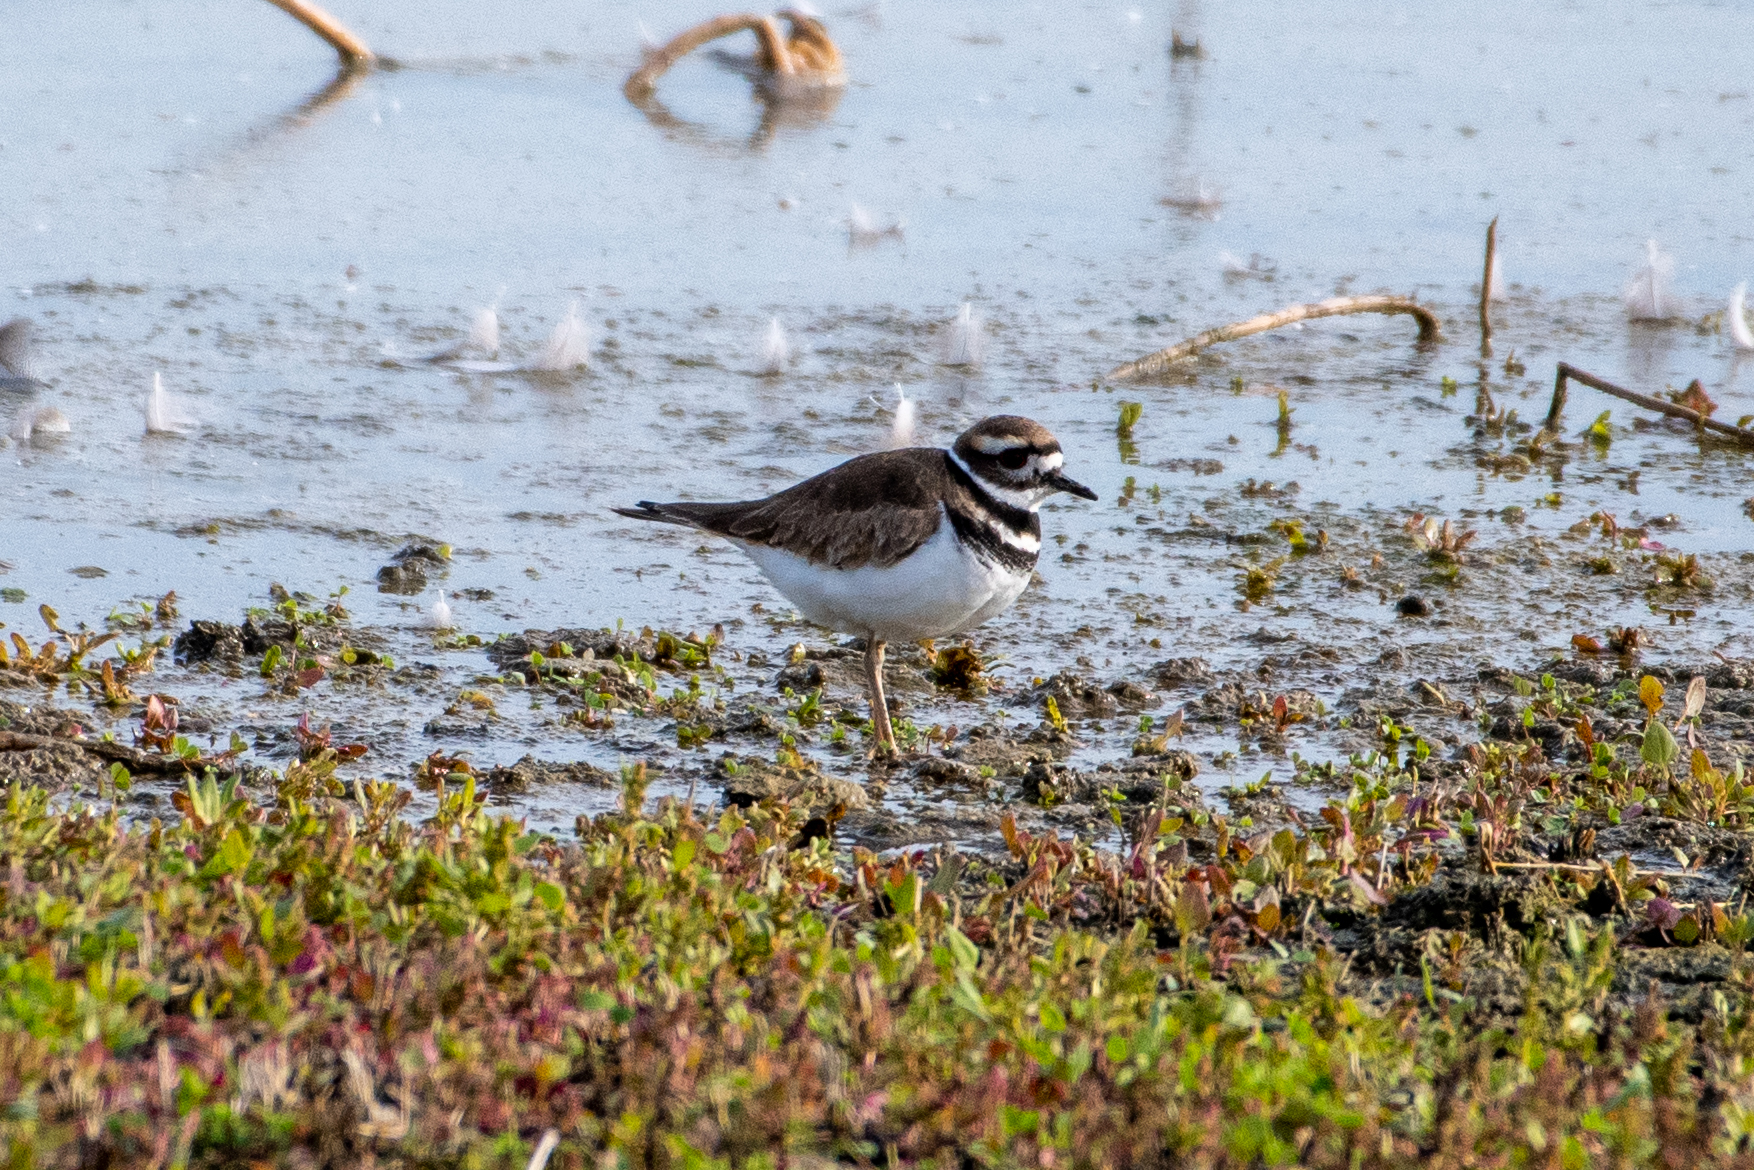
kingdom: Animalia
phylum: Chordata
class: Aves
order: Charadriiformes
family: Charadriidae
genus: Charadrius
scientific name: Charadrius vociferus
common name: Killdeer
